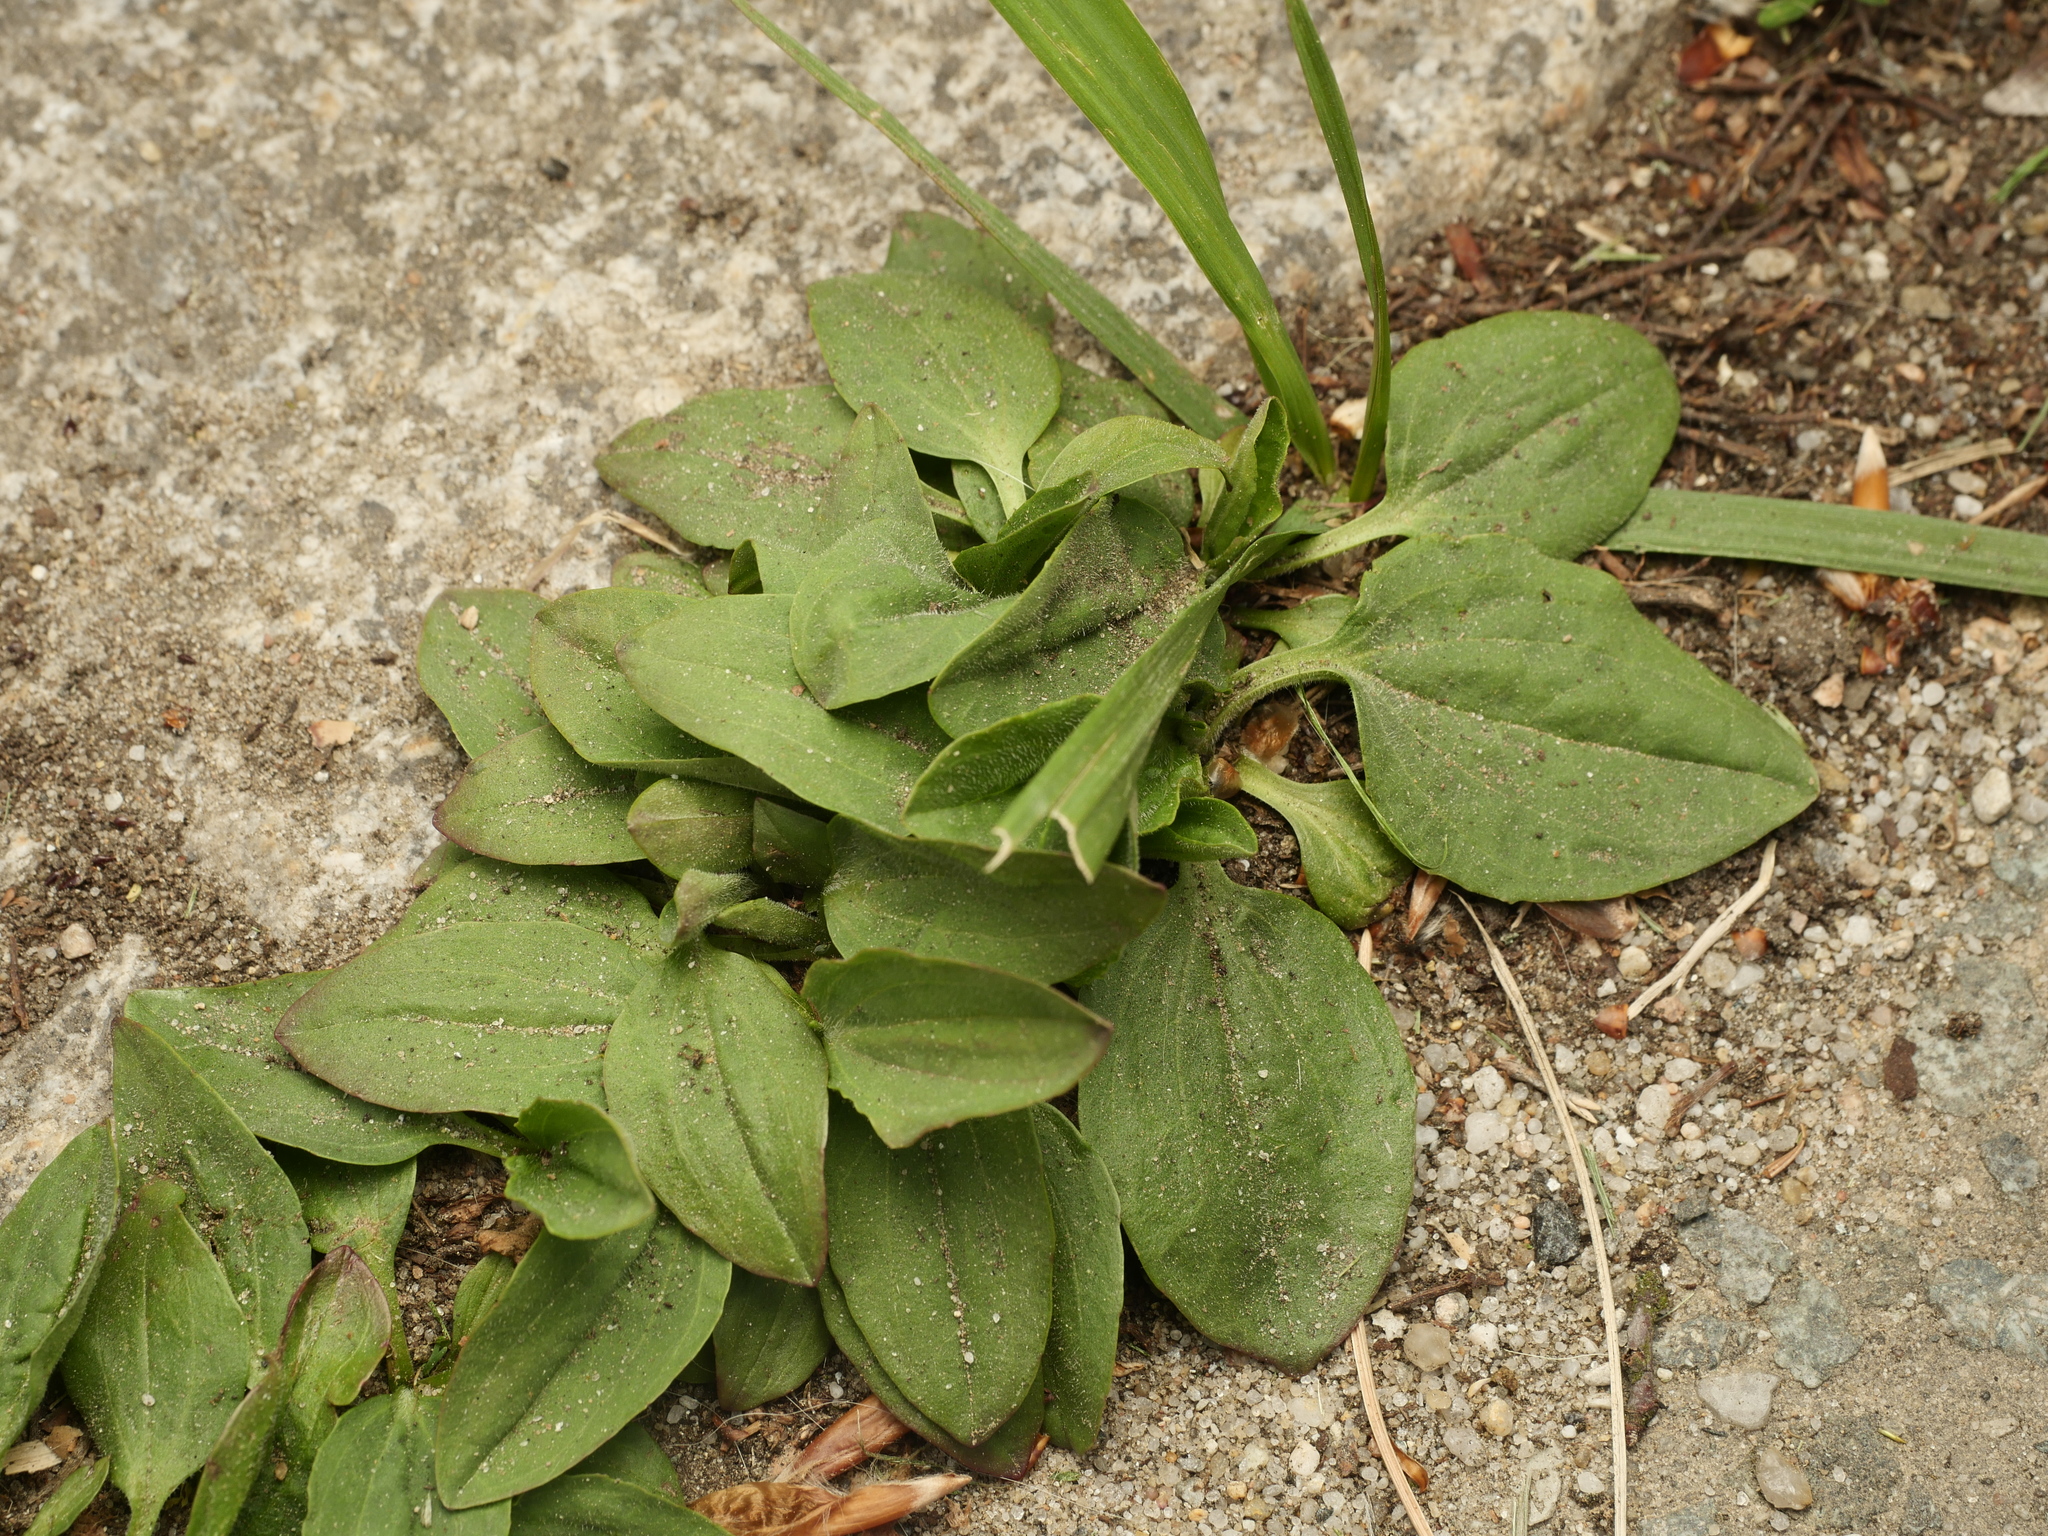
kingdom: Plantae
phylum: Tracheophyta
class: Magnoliopsida
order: Lamiales
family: Plantaginaceae
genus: Plantago
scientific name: Plantago major
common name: Common plantain
